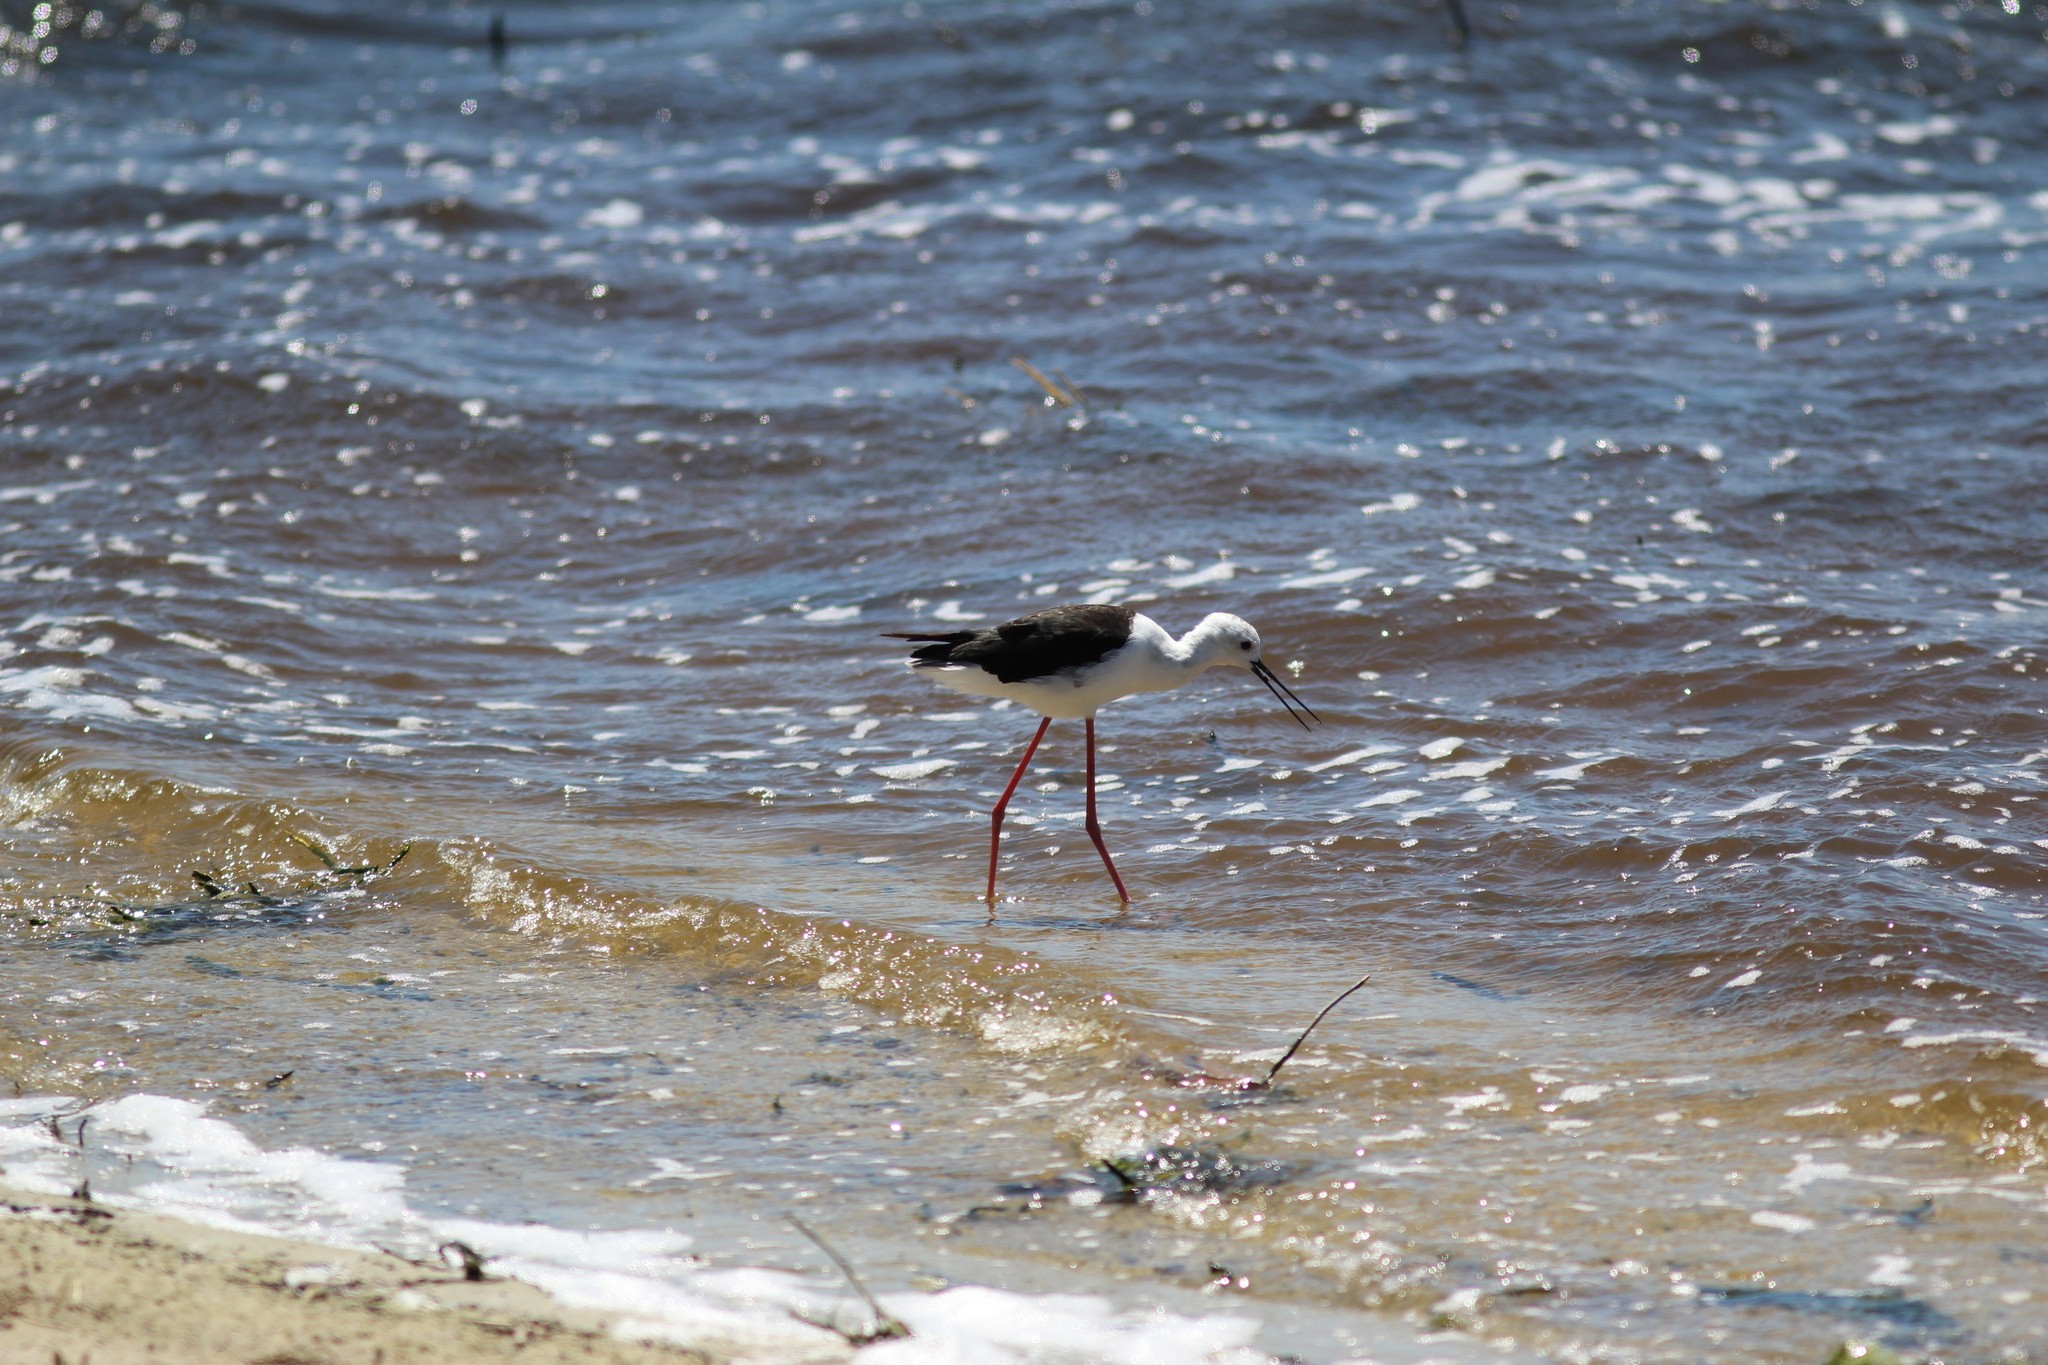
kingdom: Animalia
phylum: Chordata
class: Aves
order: Charadriiformes
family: Recurvirostridae
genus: Himantopus
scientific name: Himantopus himantopus
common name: Black-winged stilt
